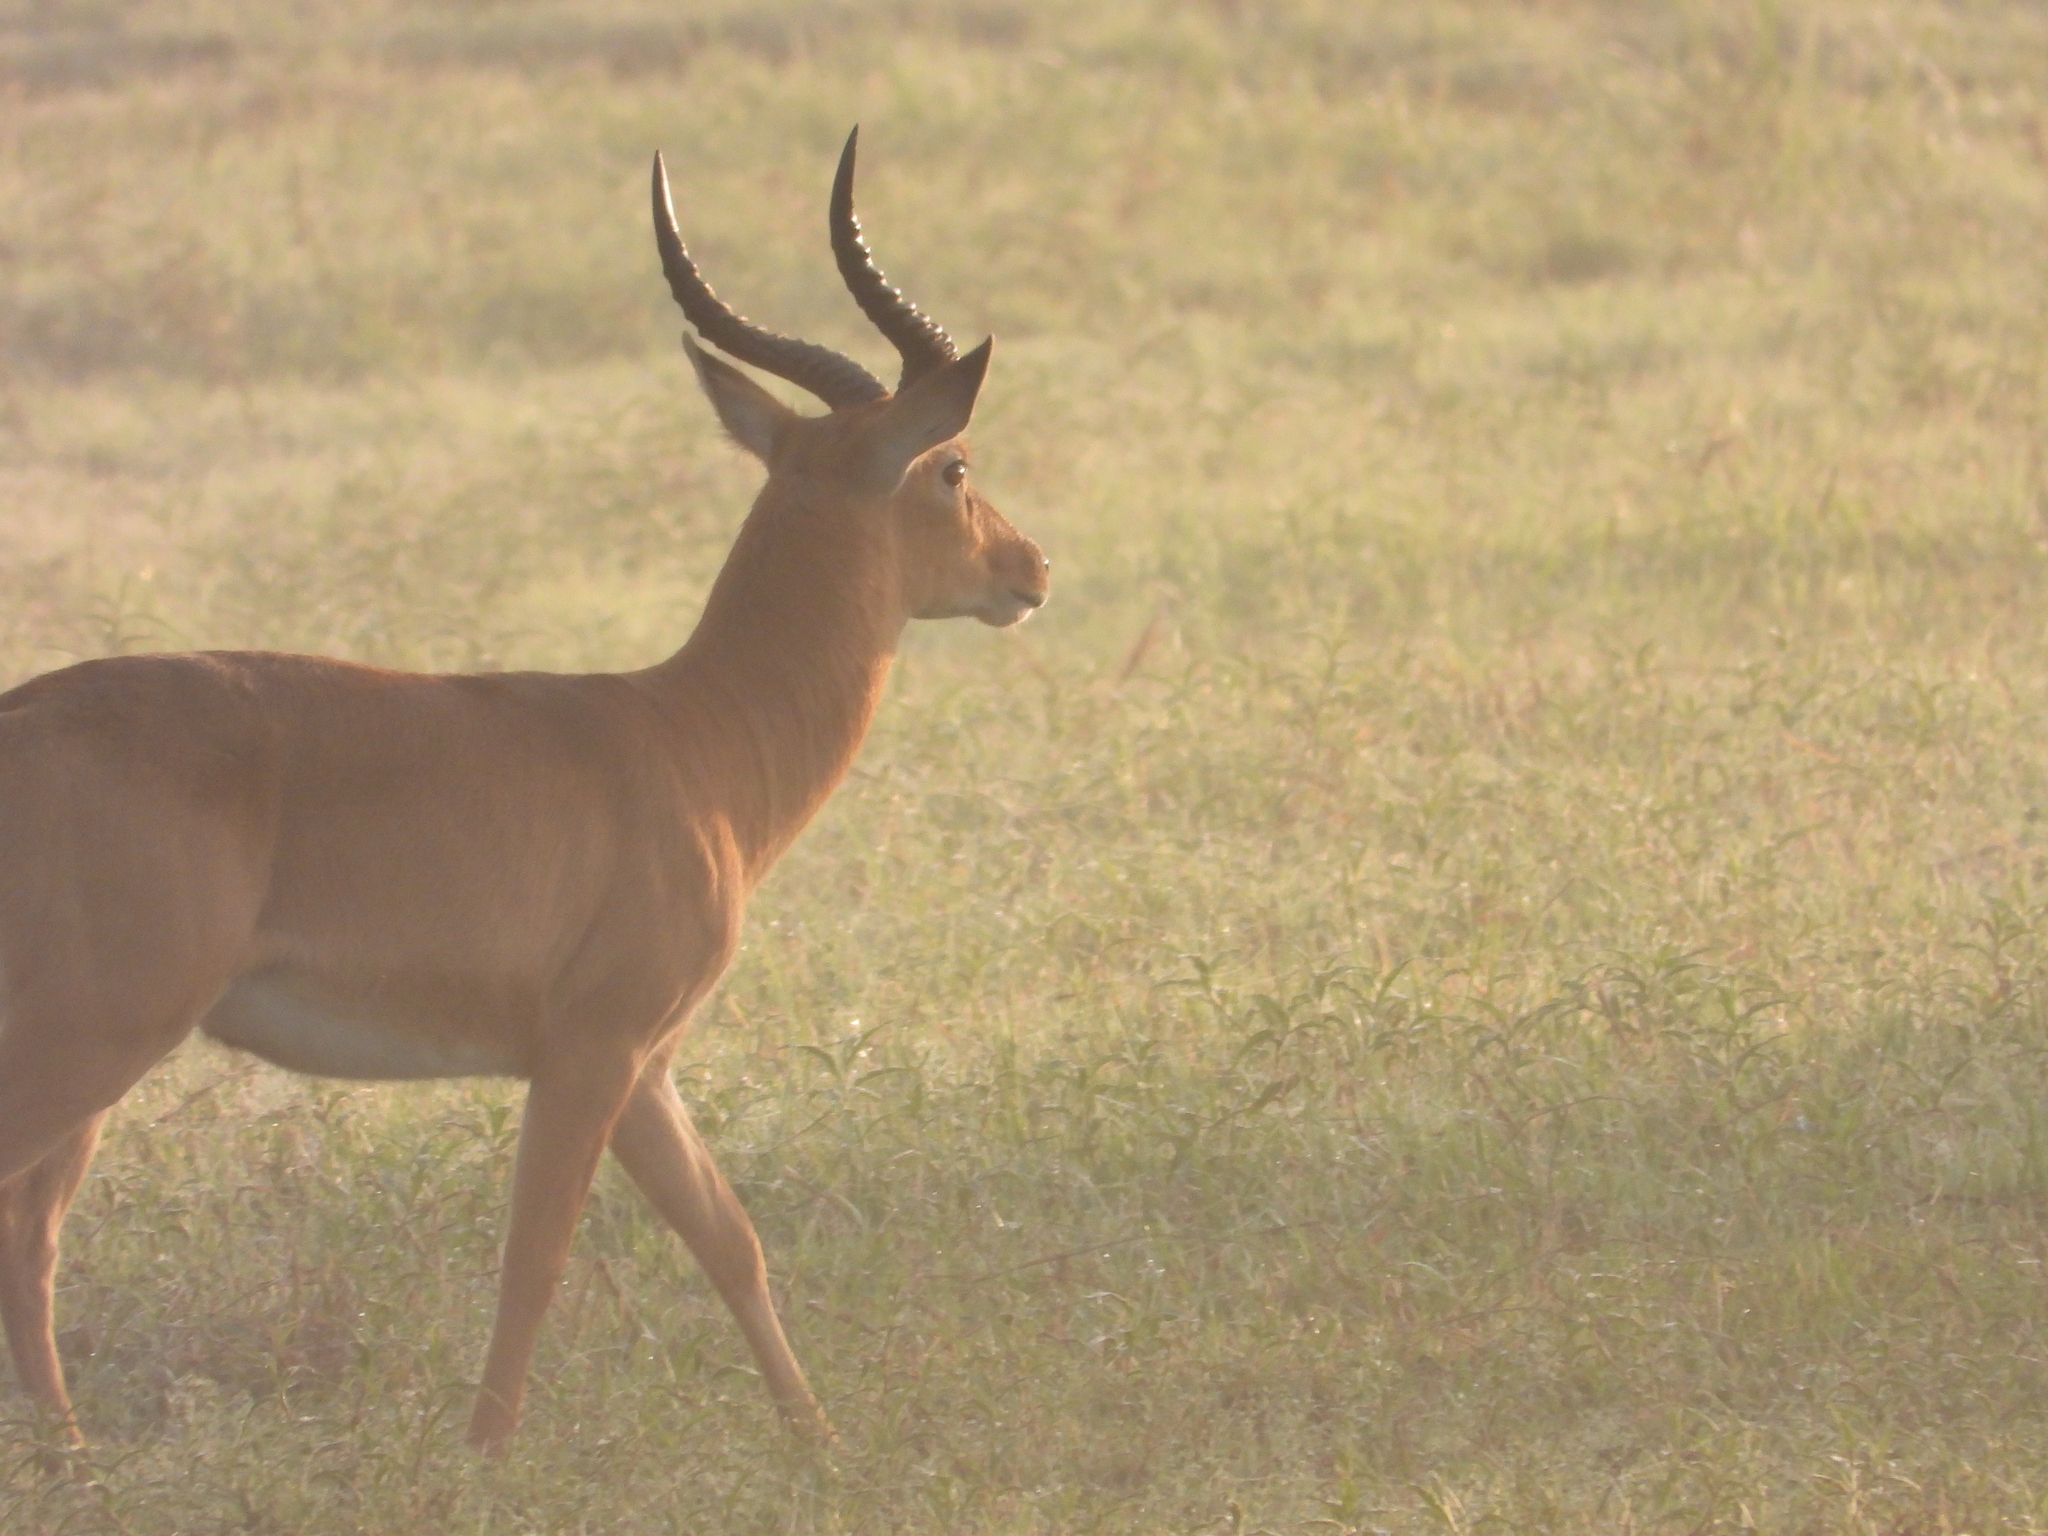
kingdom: Animalia
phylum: Chordata
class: Mammalia
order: Artiodactyla
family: Bovidae
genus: Kobus
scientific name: Kobus vardonii
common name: Puku
